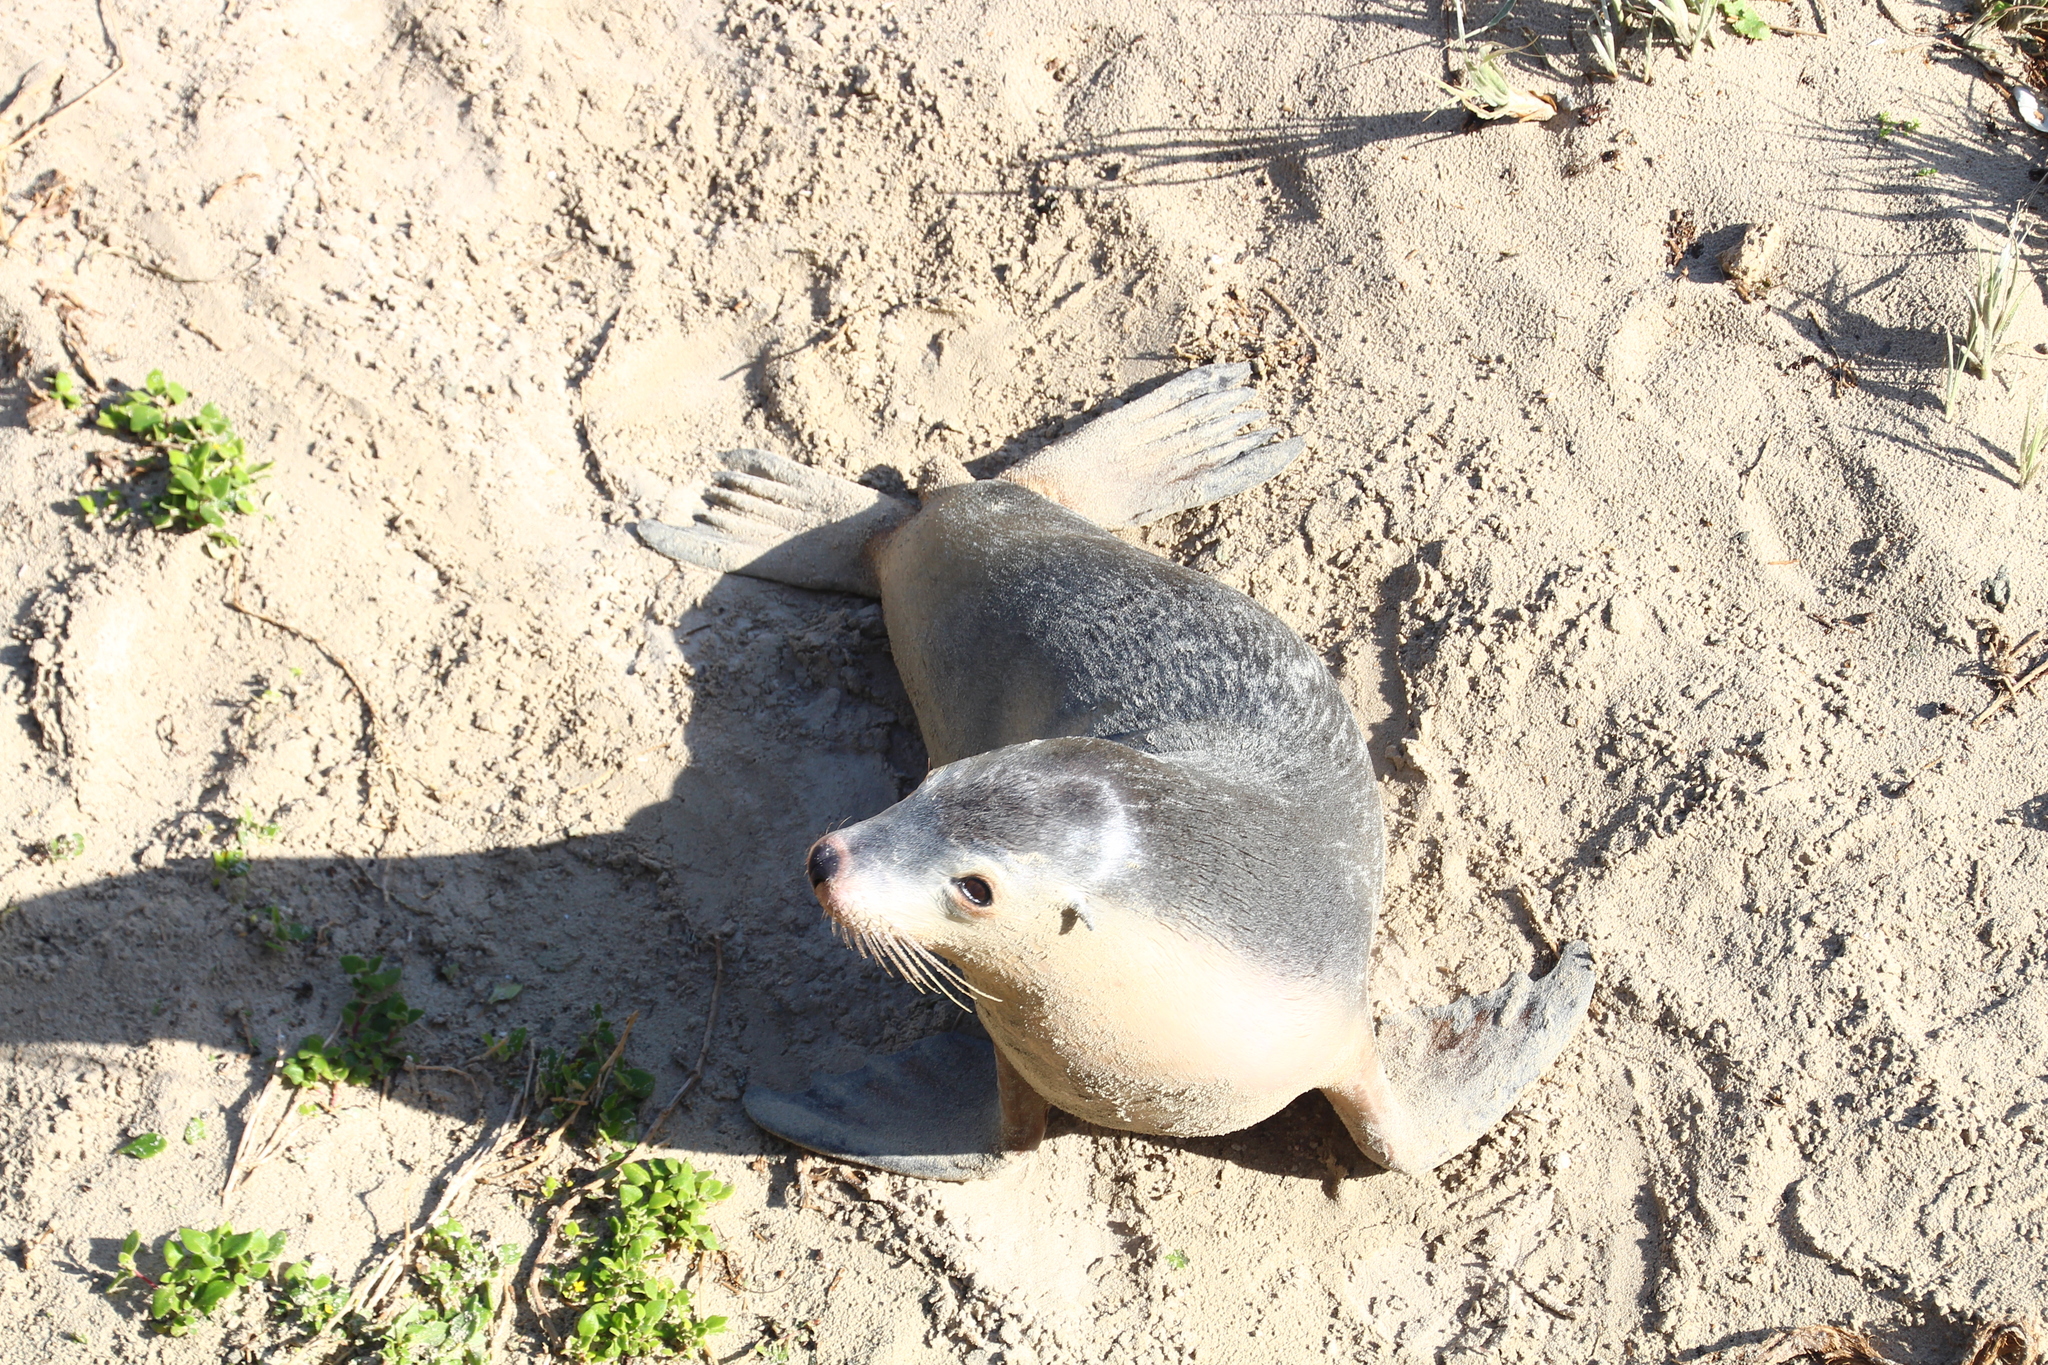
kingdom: Animalia
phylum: Chordata
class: Mammalia
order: Carnivora
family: Otariidae
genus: Neophoca
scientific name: Neophoca cinerea
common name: Australian sea lion
